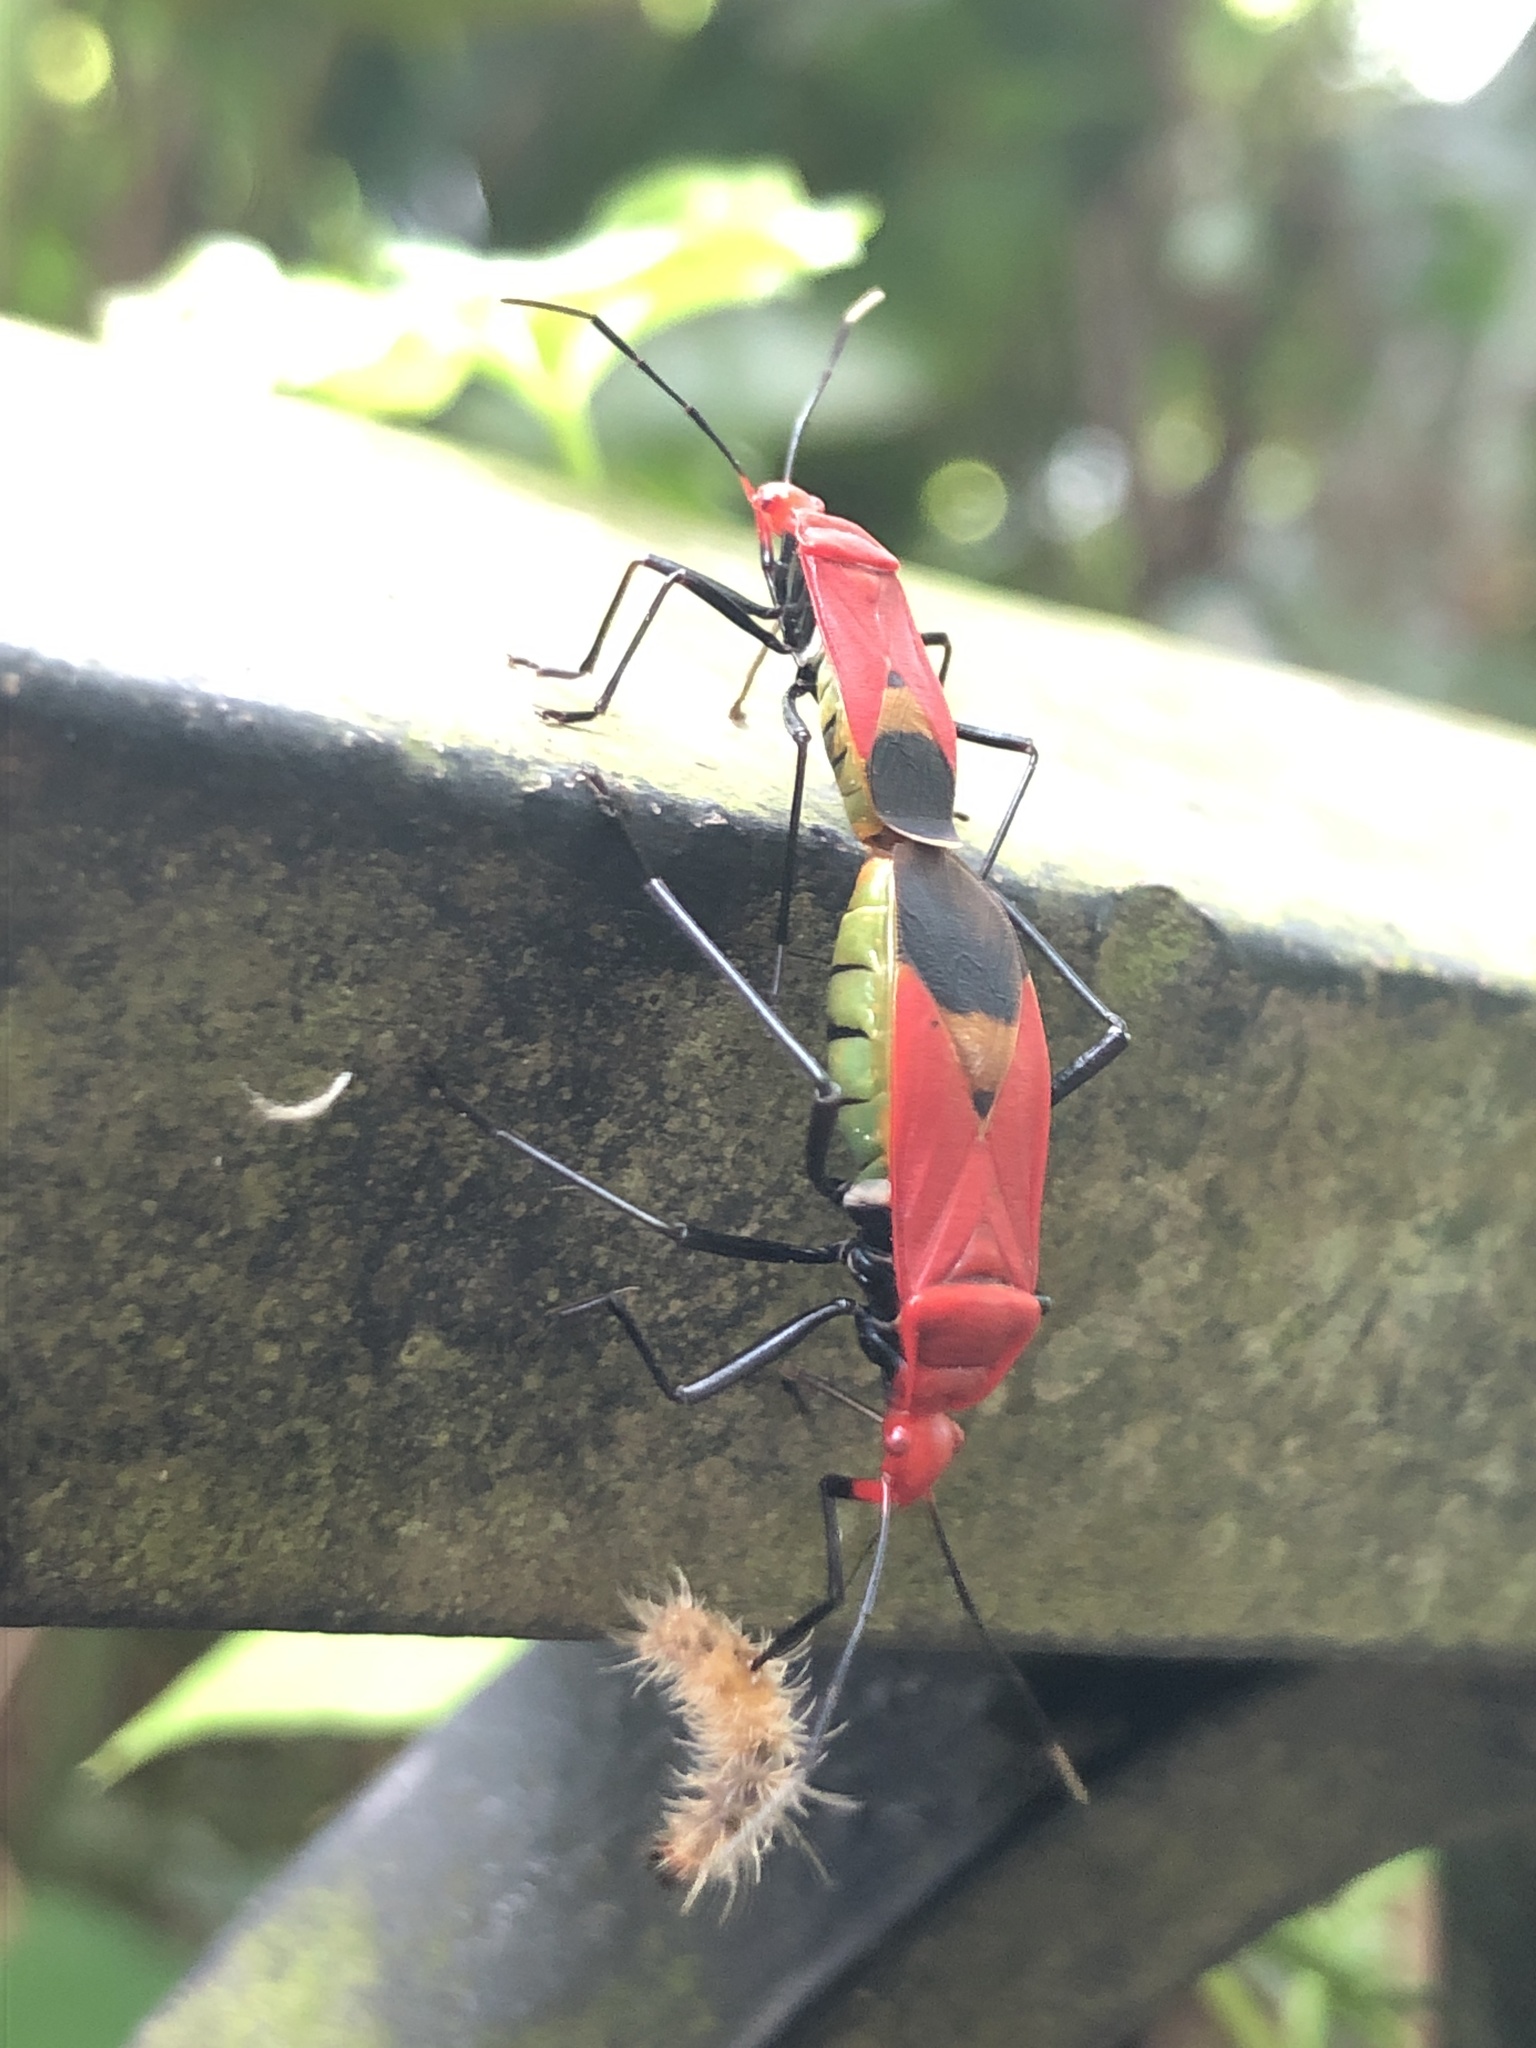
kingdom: Animalia
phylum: Arthropoda
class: Insecta
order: Hemiptera
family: Pyrrhocoridae
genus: Dindymus
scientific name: Dindymus
